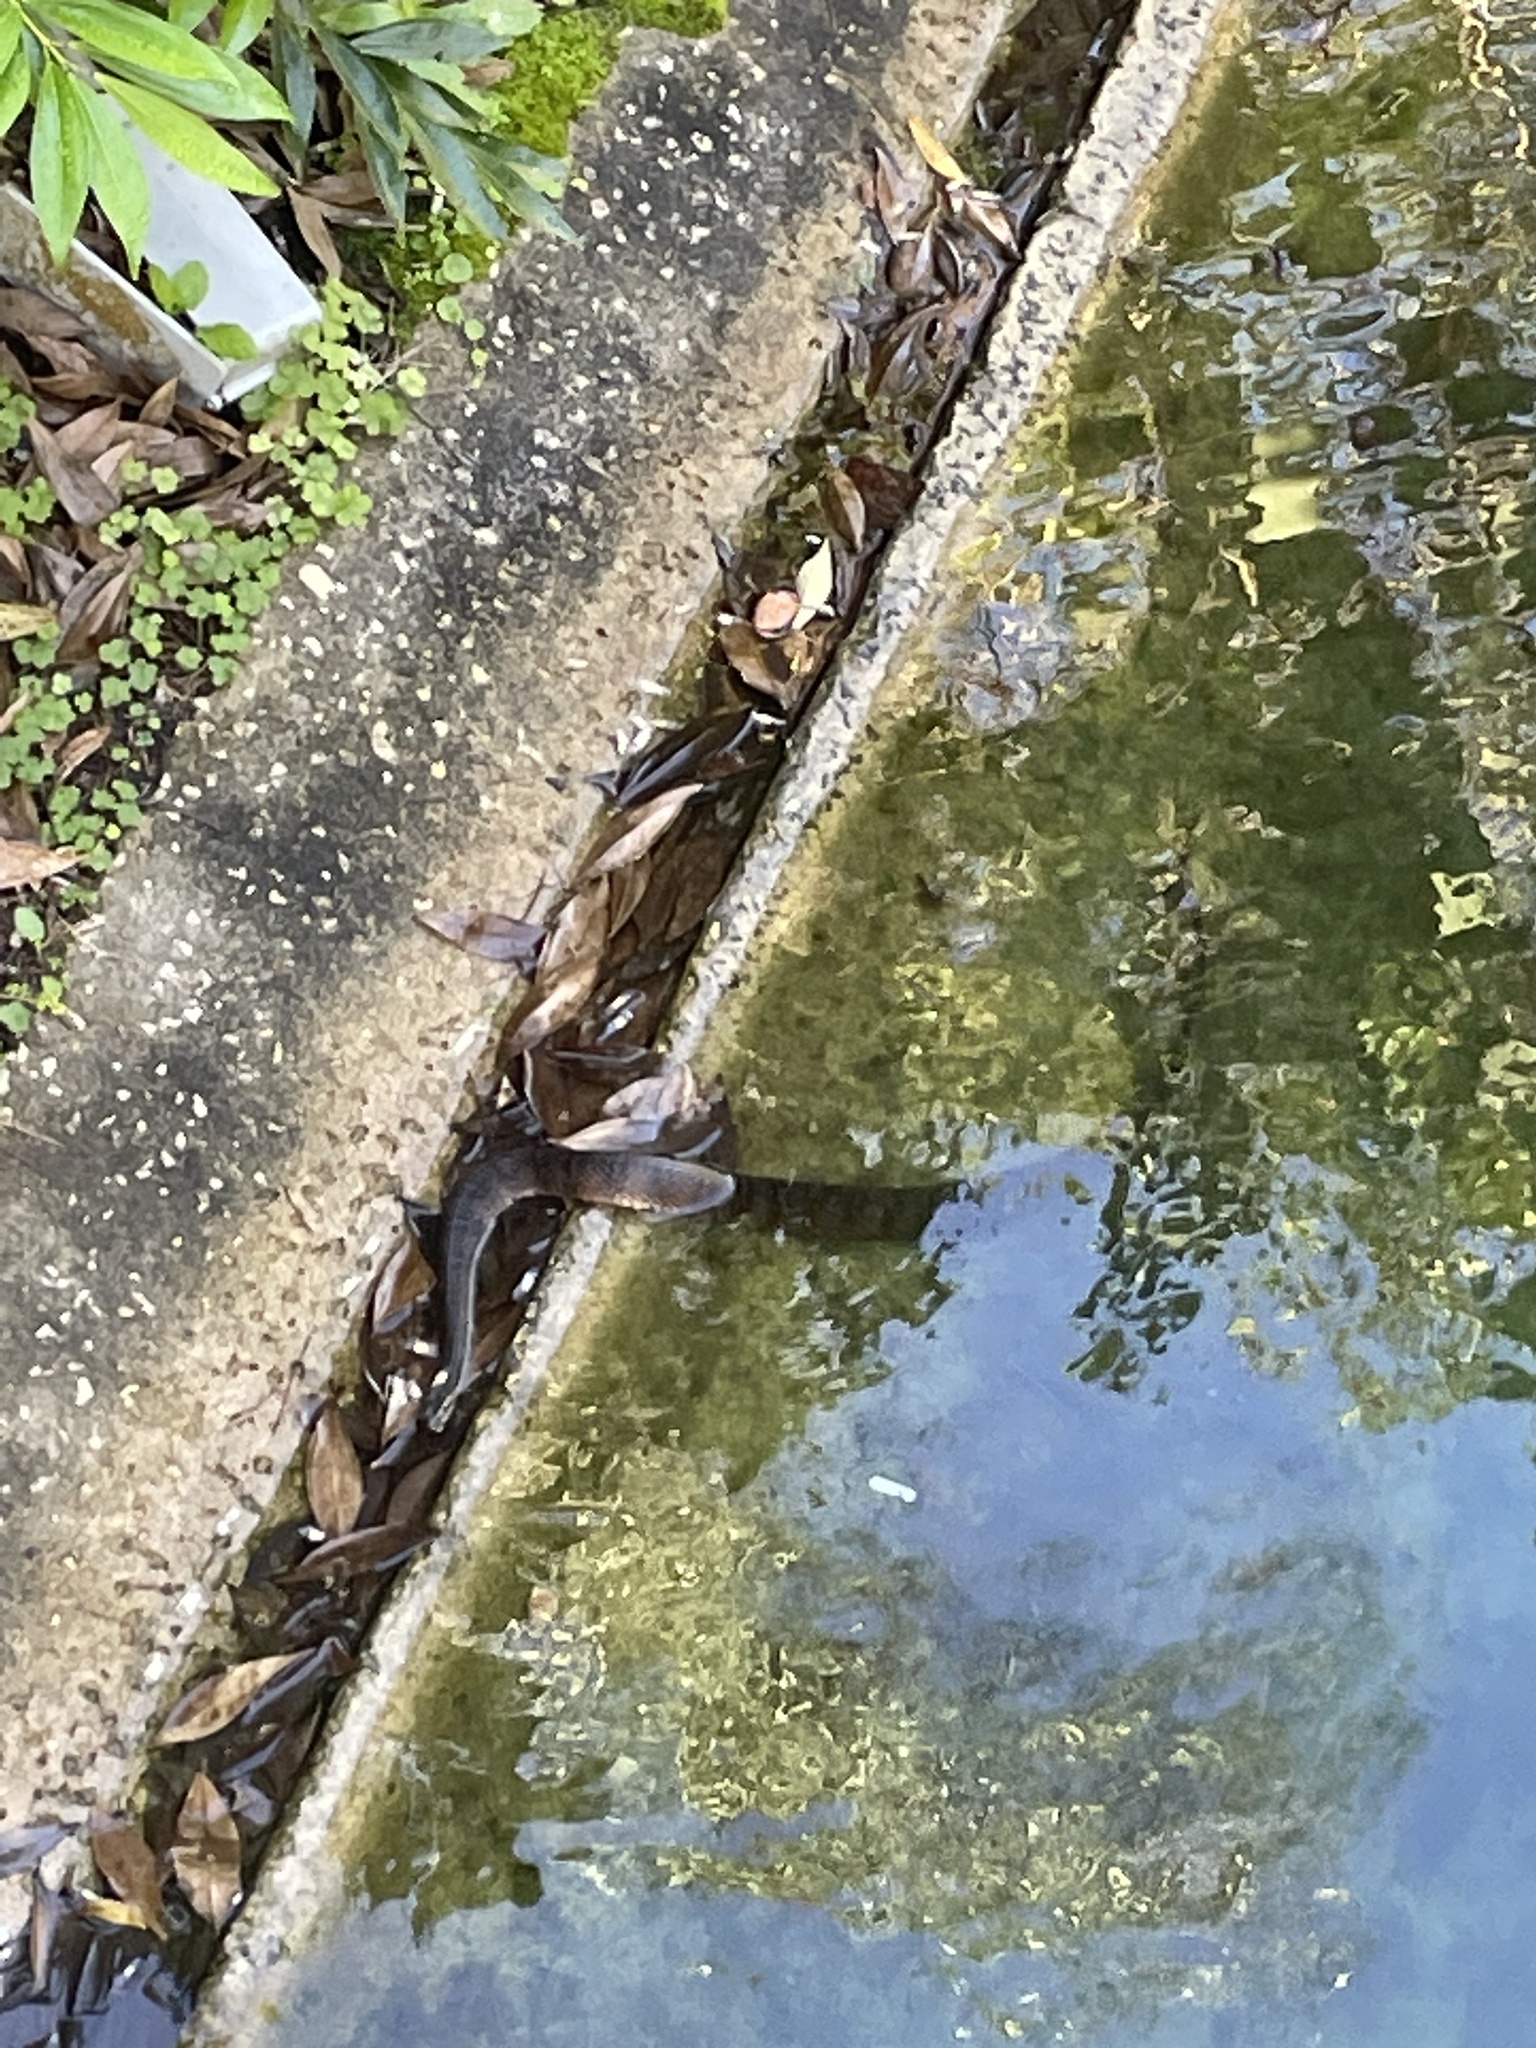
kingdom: Animalia
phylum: Chordata
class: Squamata
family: Colubridae
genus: Nerodia
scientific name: Nerodia fasciata
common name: Southern water snake
